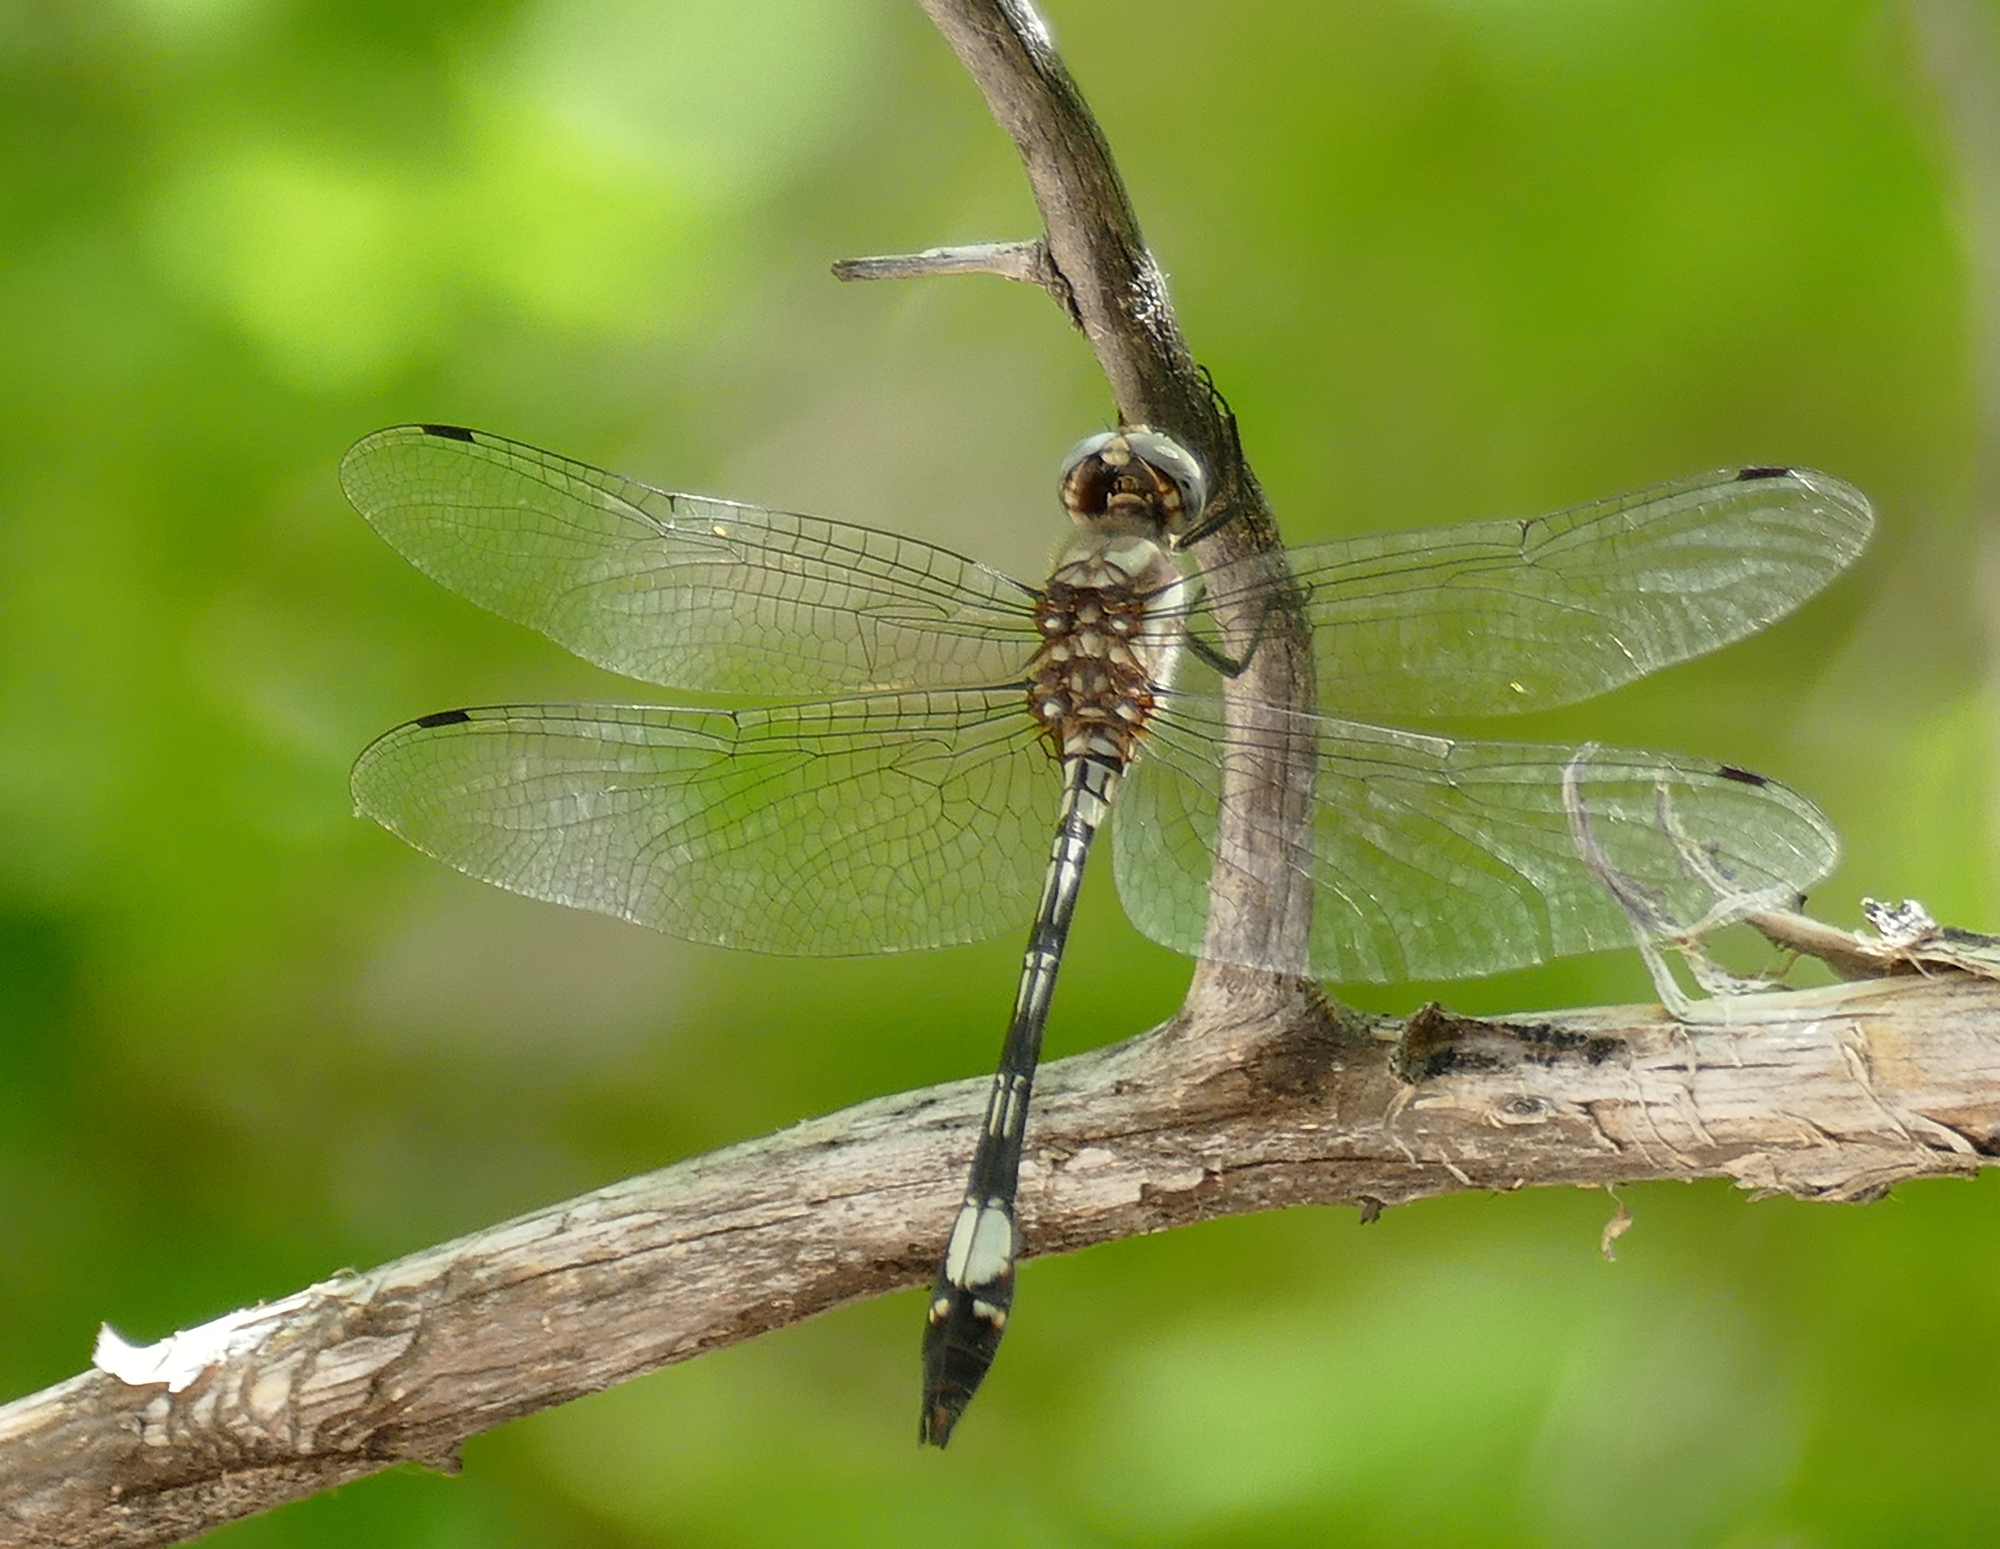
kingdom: Animalia
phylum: Arthropoda
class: Insecta
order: Odonata
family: Libellulidae
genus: Brechmorhoga
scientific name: Brechmorhoga mendax
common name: Pale-faced clubskimmer
